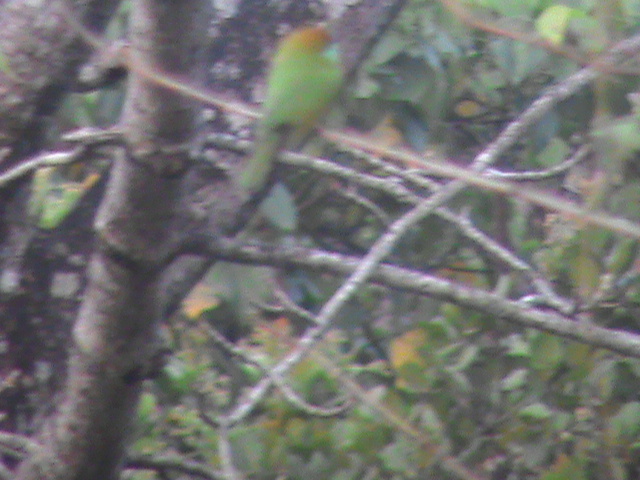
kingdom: Animalia
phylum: Chordata
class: Aves
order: Coraciiformes
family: Meropidae
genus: Merops
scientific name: Merops orientalis
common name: Green bee-eater
